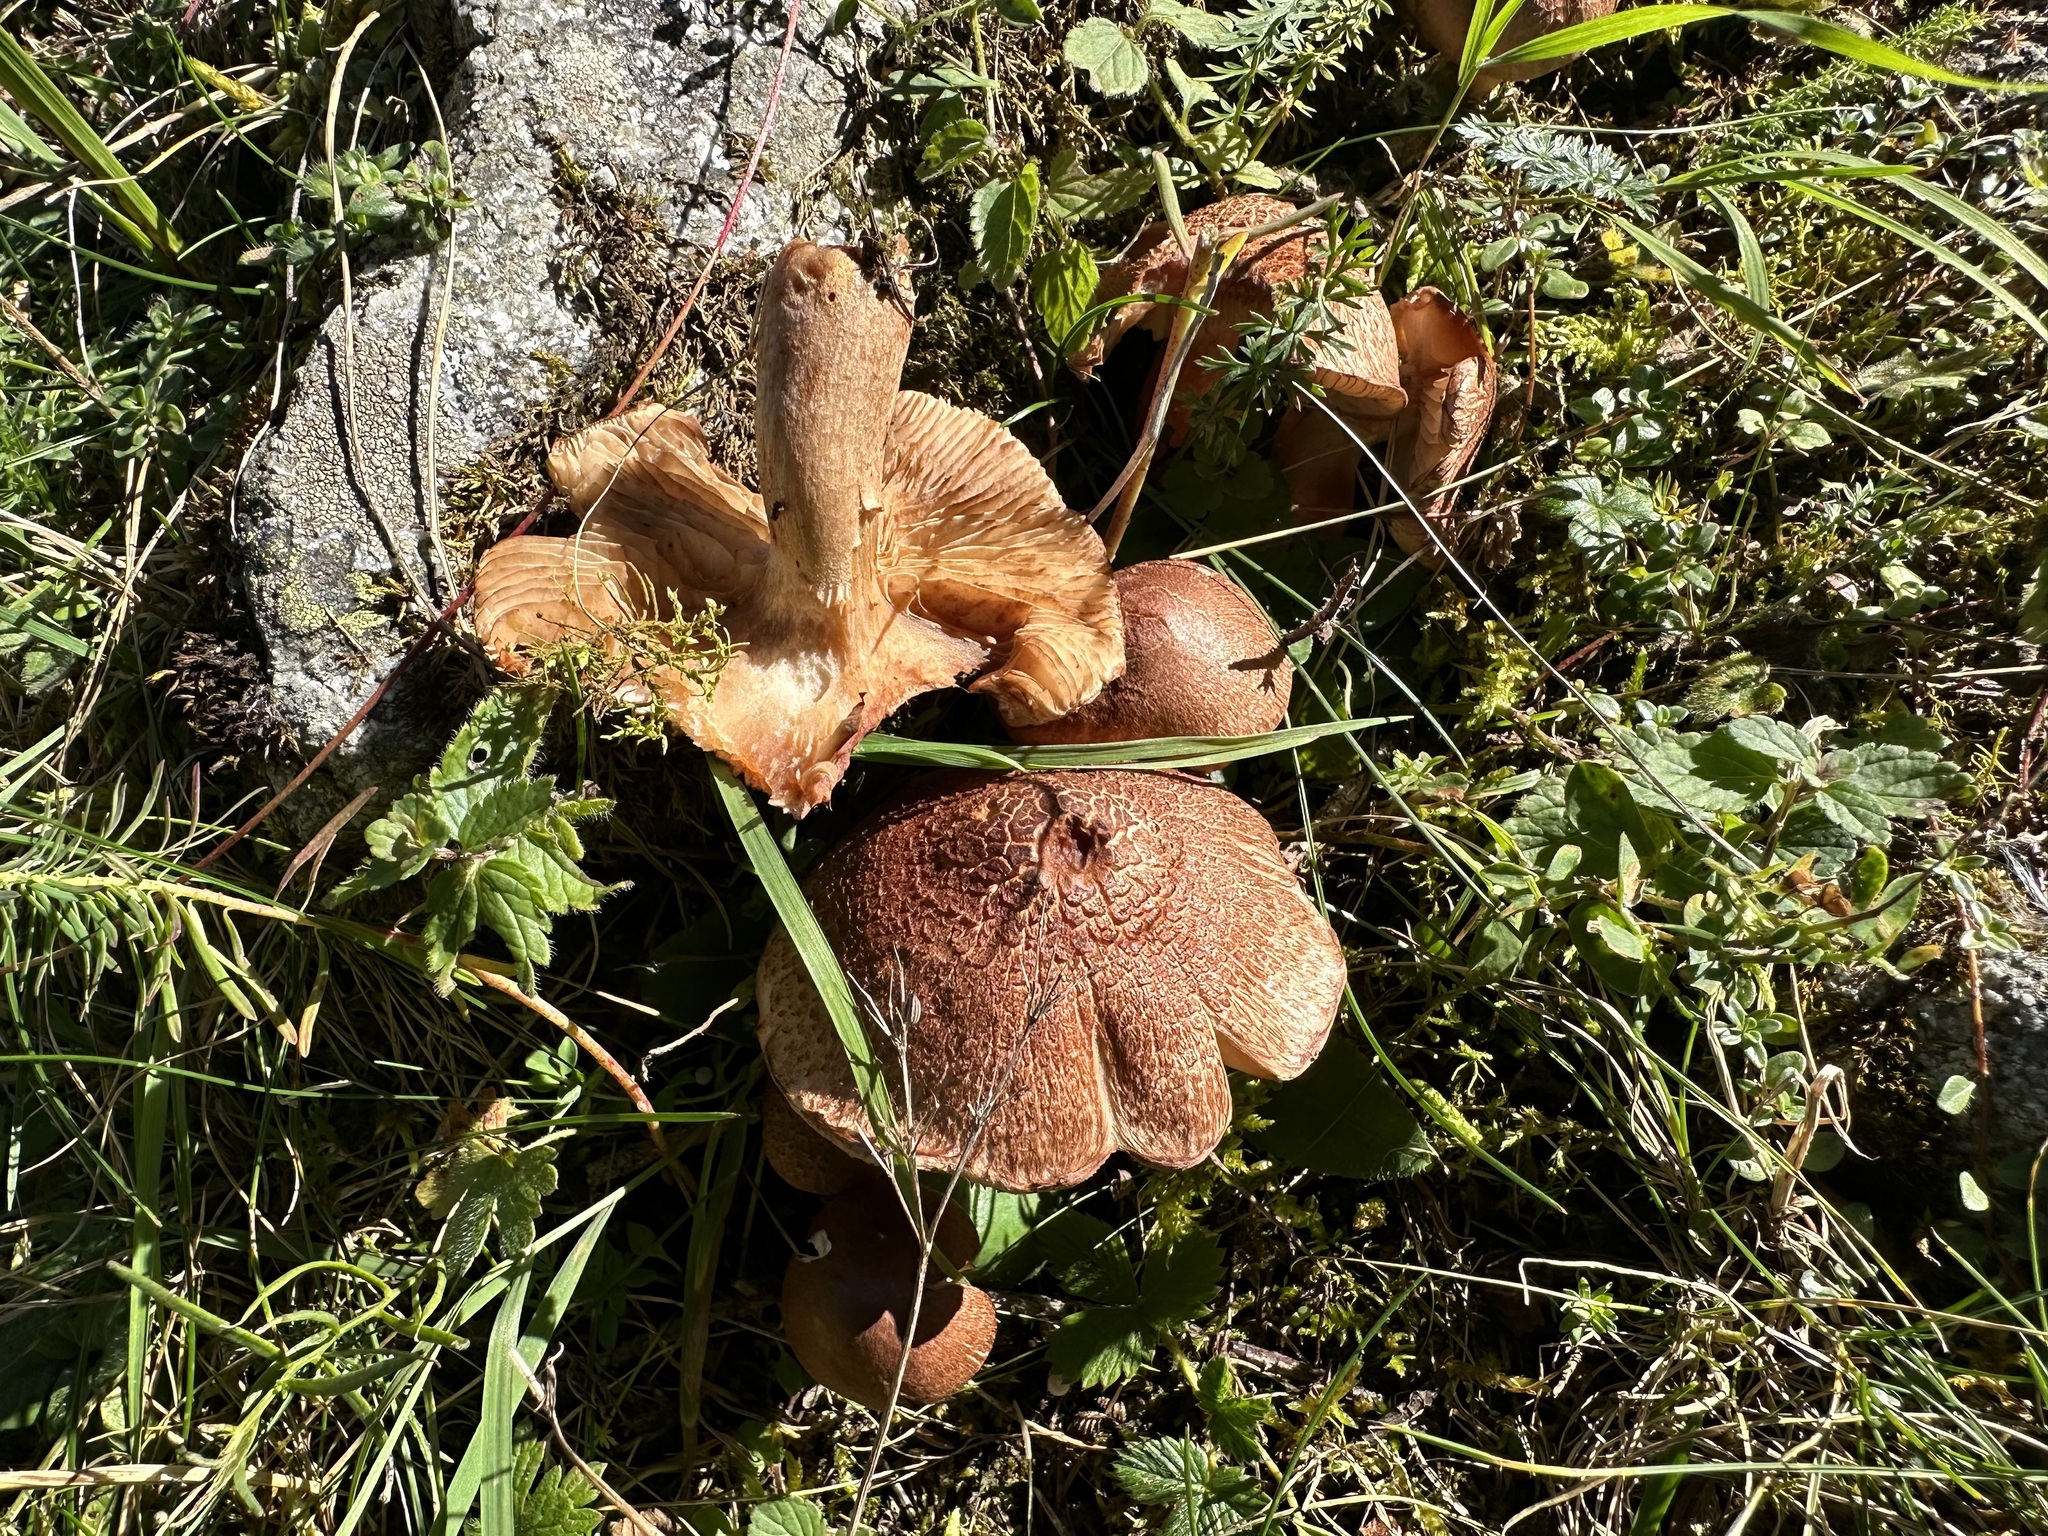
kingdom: Fungi
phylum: Basidiomycota
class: Agaricomycetes
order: Agaricales
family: Tricholomataceae
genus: Tricholoma
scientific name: Tricholoma vaccinum
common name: Scaly knight
